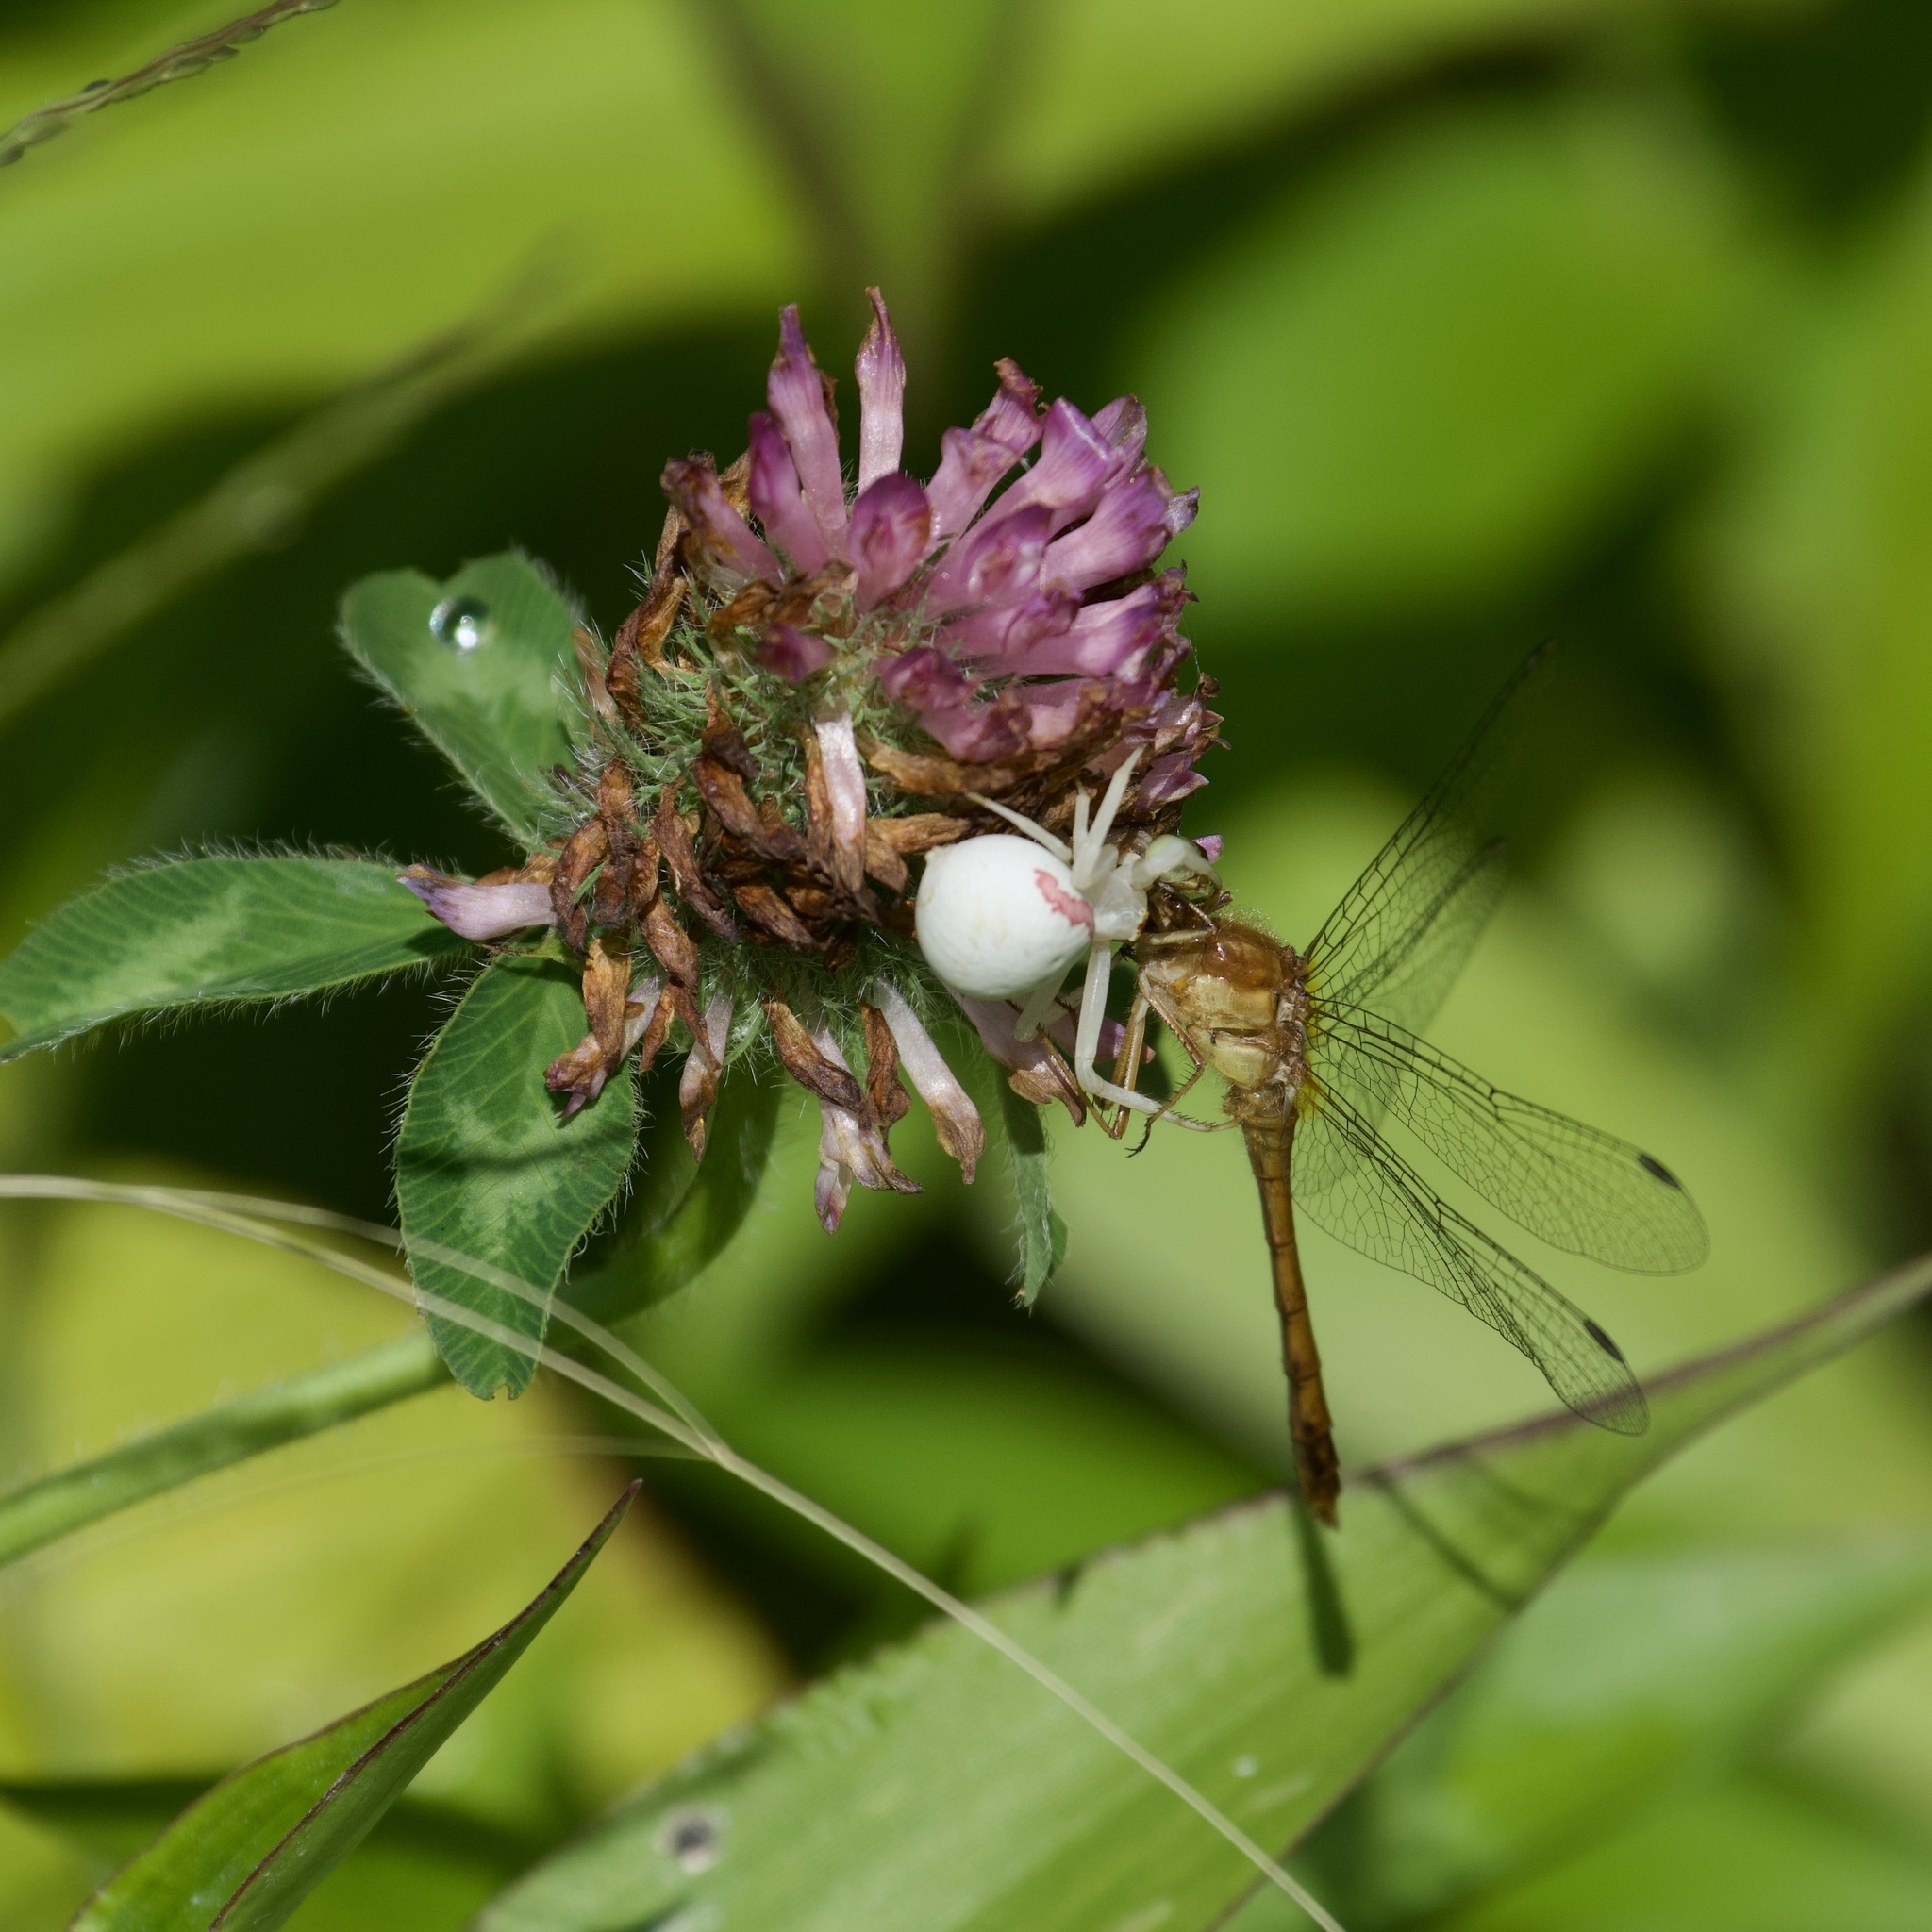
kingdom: Animalia
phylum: Arthropoda
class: Arachnida
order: Araneae
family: Thomisidae
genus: Misumena
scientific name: Misumena vatia
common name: Goldenrod crab spider
